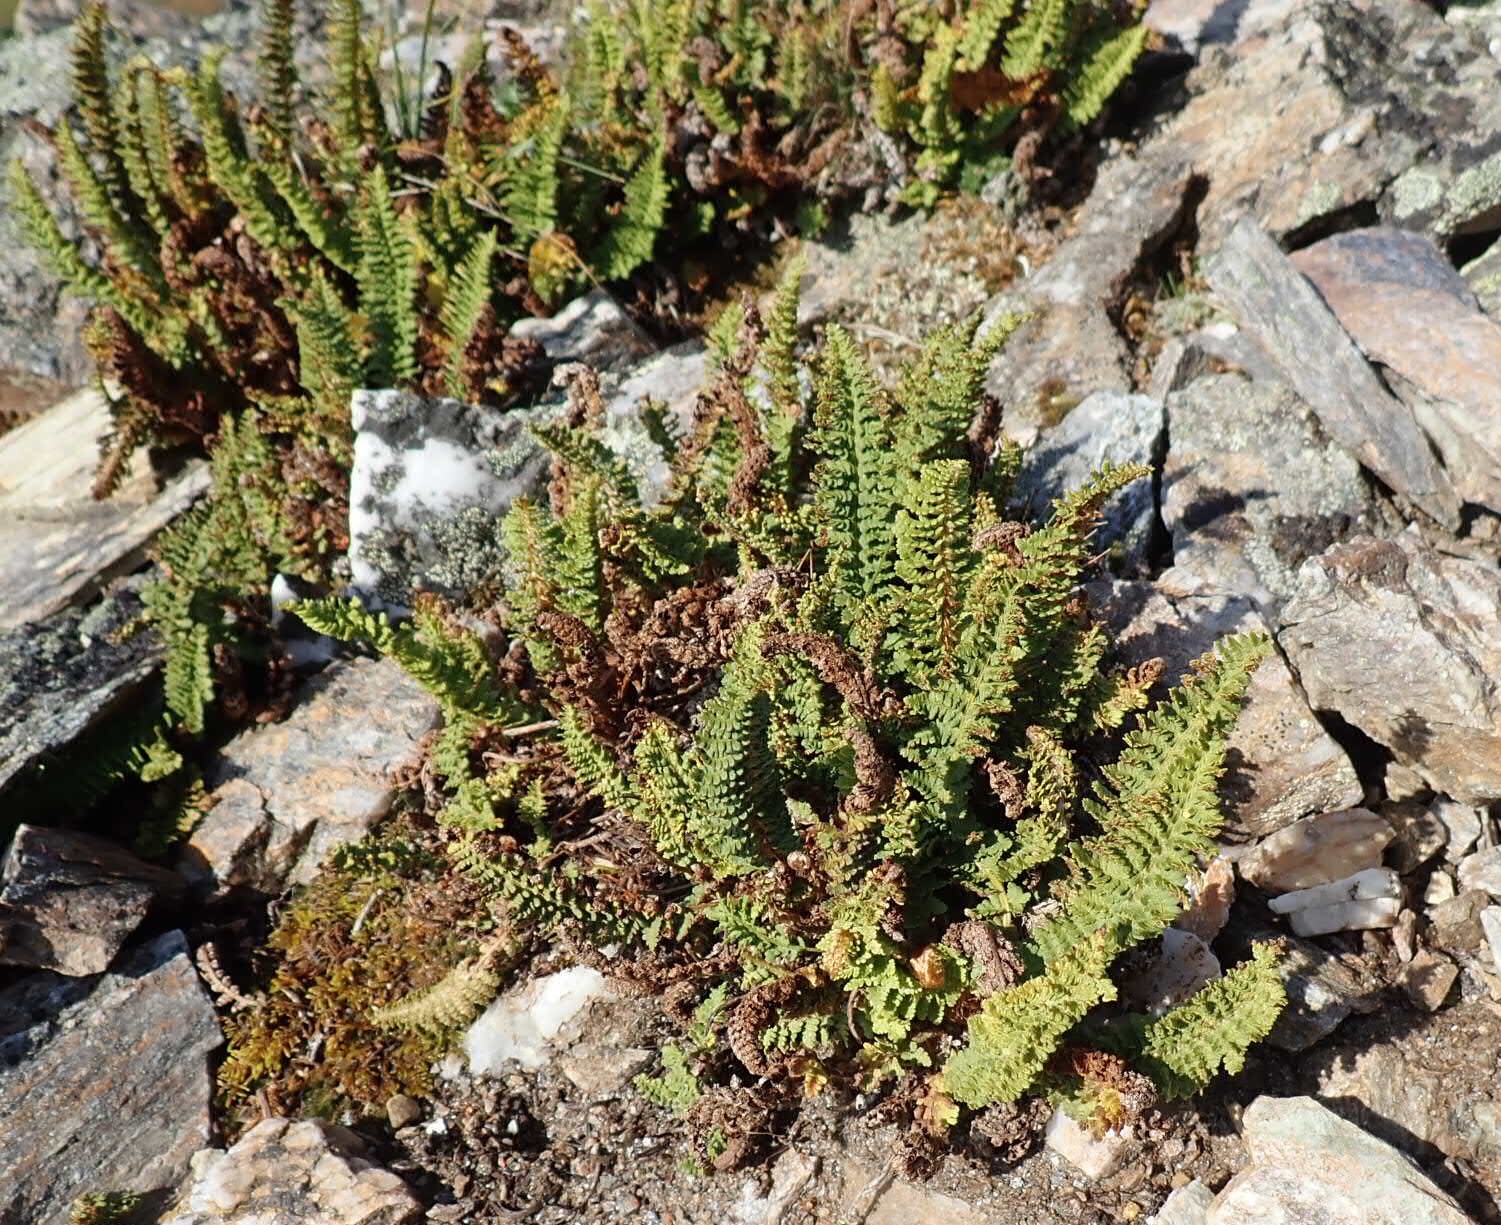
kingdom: Plantae
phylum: Tracheophyta
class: Polypodiopsida
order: Polypodiales
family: Dryopteridaceae
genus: Dryopteris
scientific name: Dryopteris fragrans
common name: Fragrant wood fern
